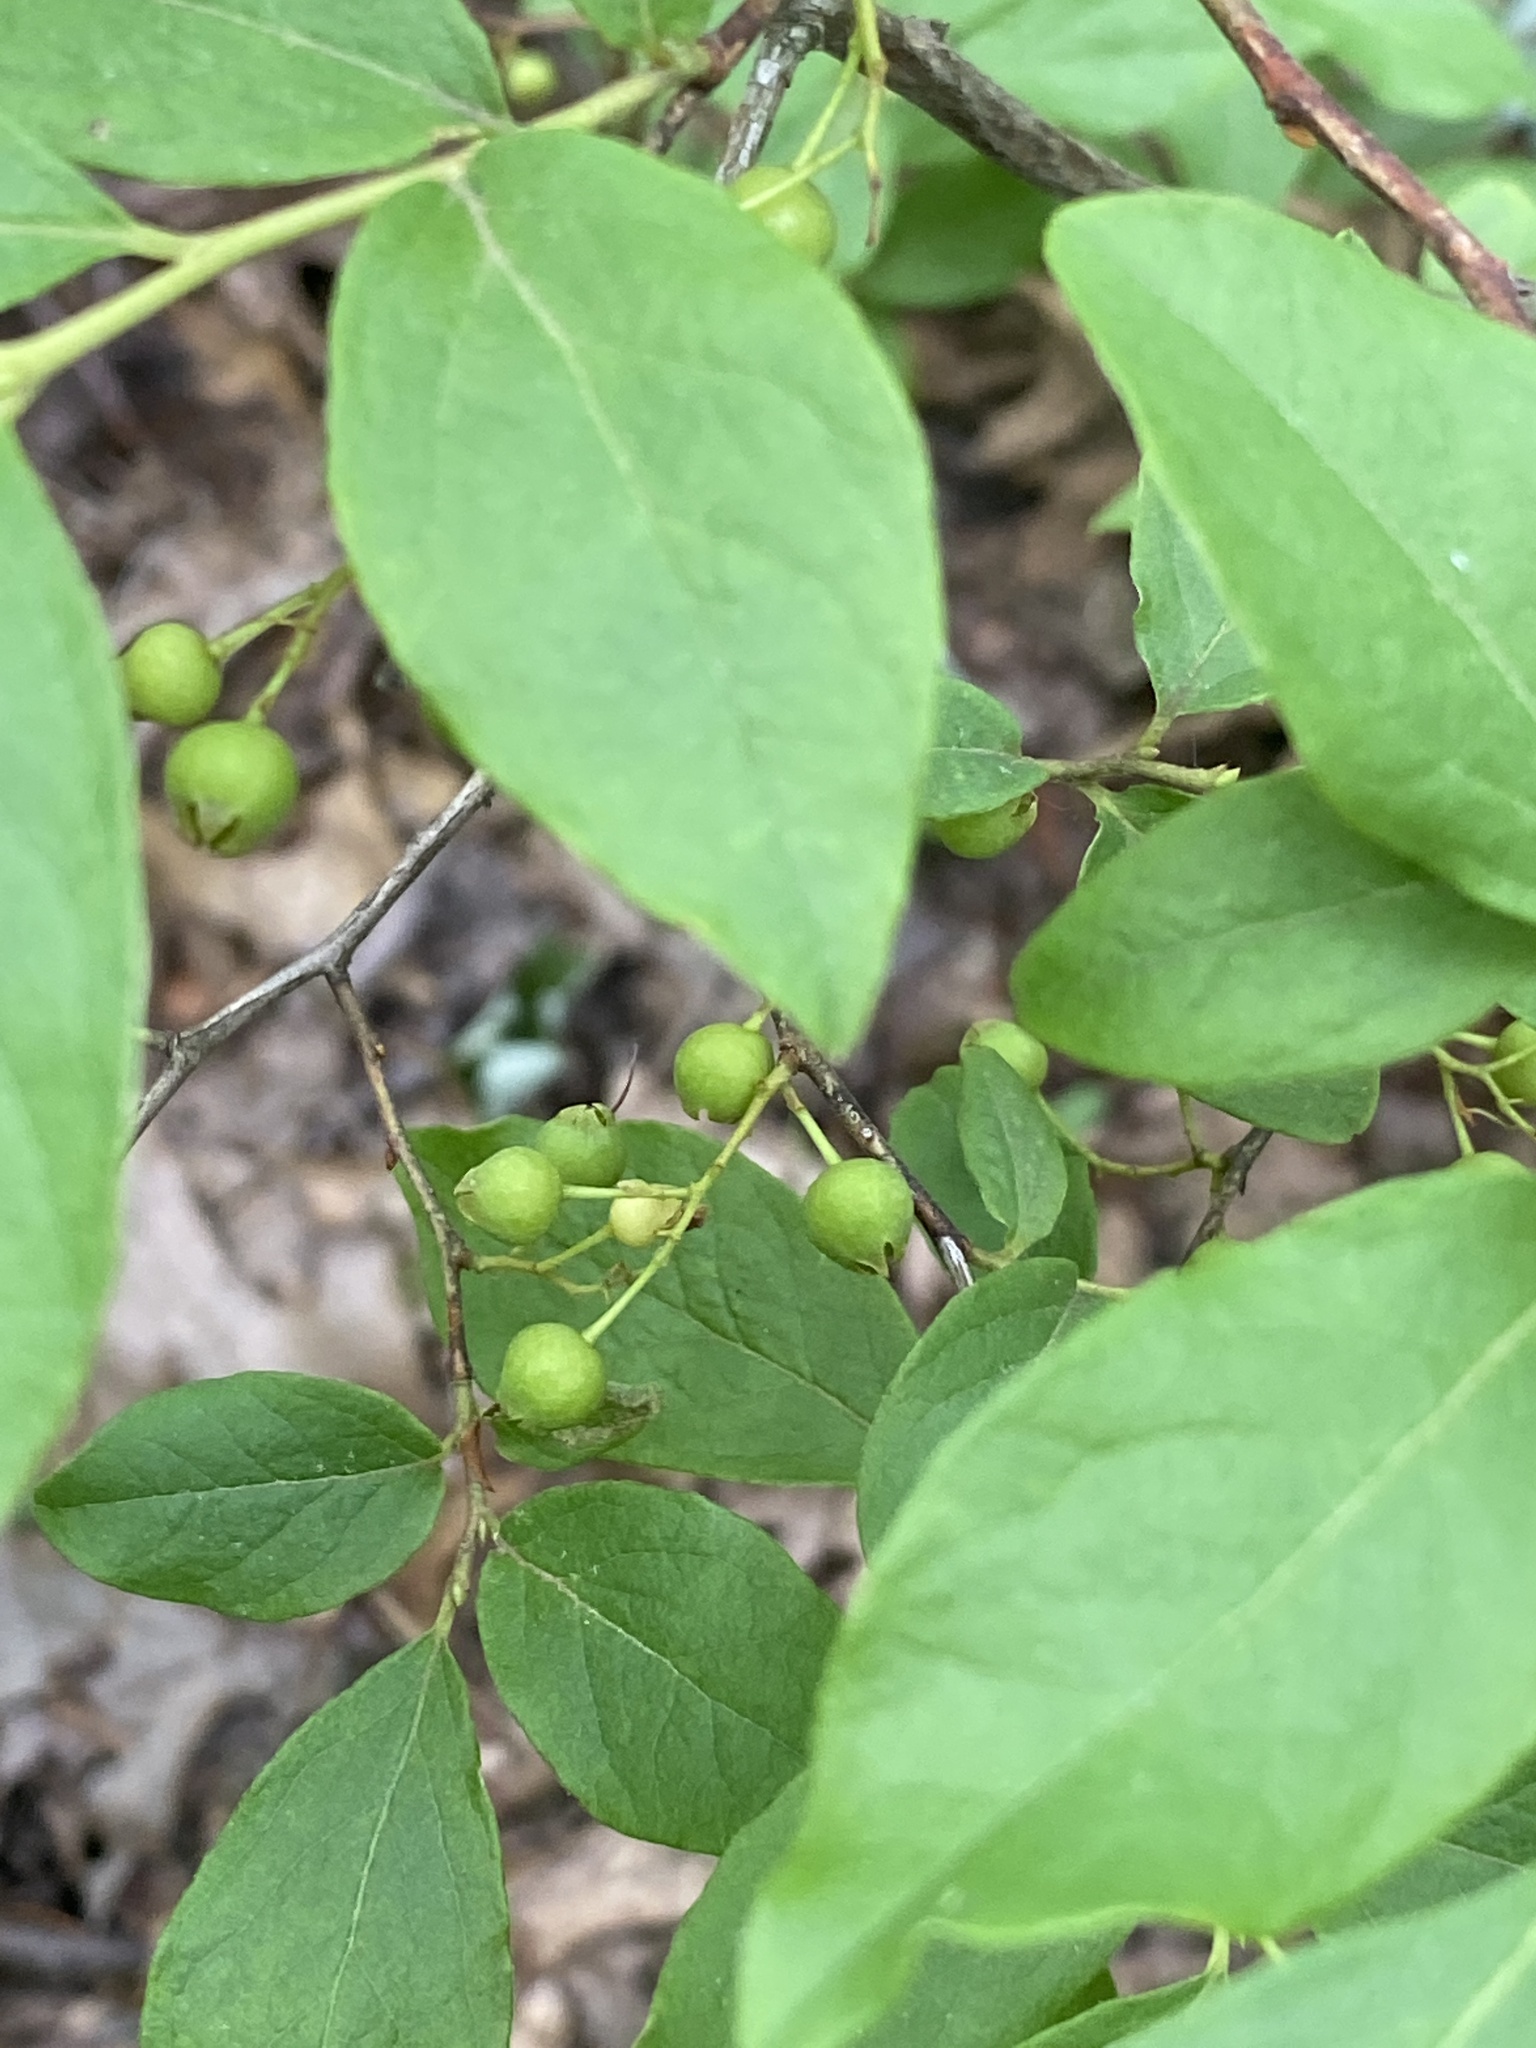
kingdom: Plantae
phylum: Tracheophyta
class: Magnoliopsida
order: Ericales
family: Ericaceae
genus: Gaylussacia
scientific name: Gaylussacia baccata
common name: Black huckleberry
